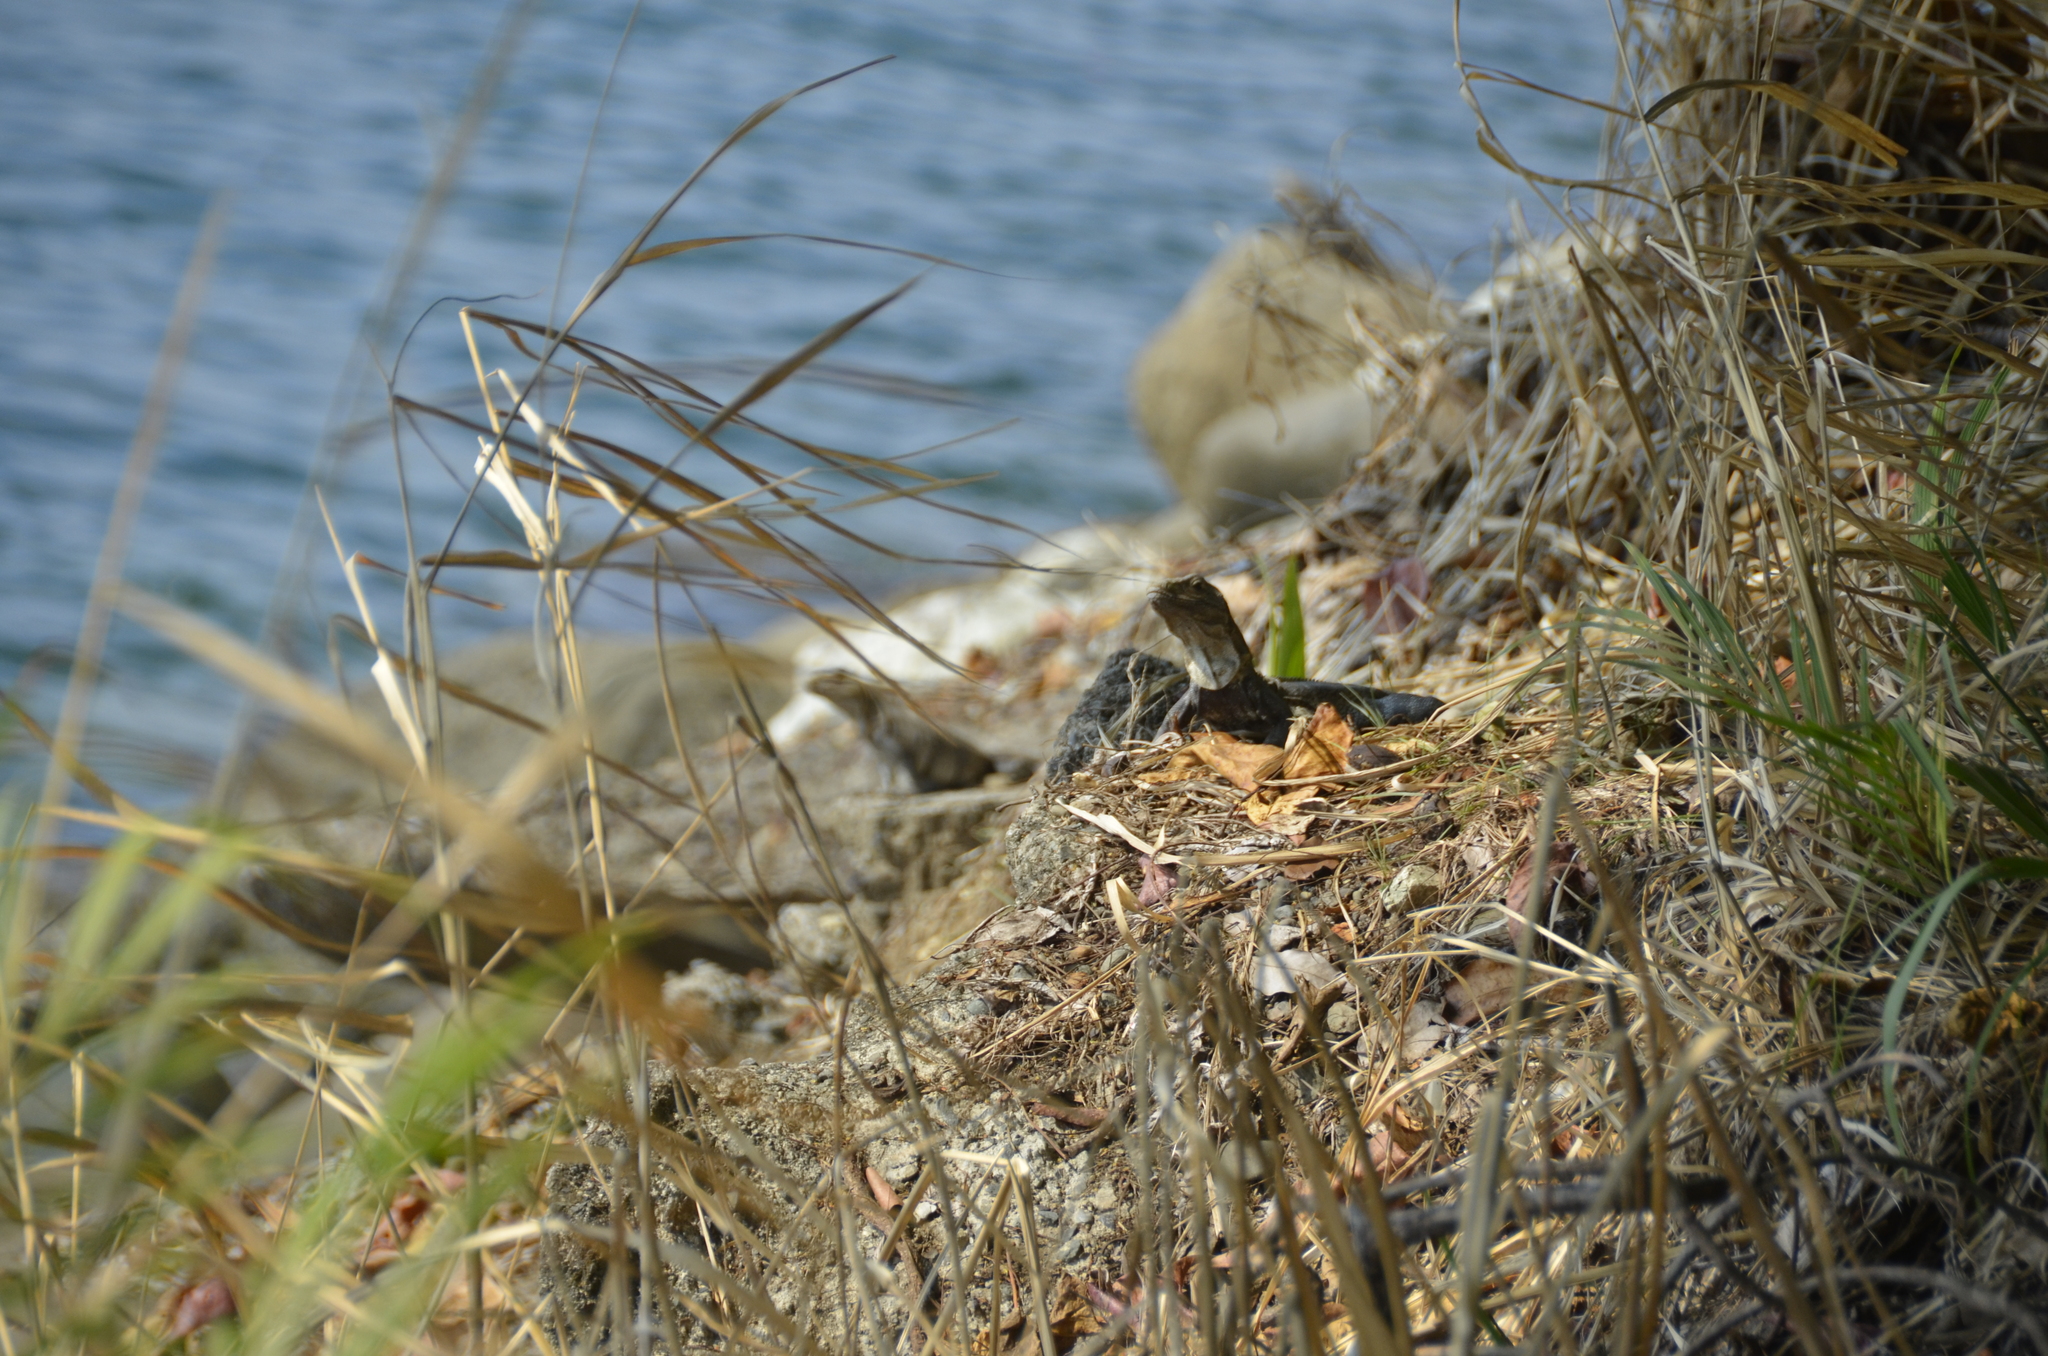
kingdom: Animalia
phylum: Chordata
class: Squamata
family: Iguanidae
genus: Ctenosaura
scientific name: Ctenosaura similis
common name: Black spiny-tailed iguana
